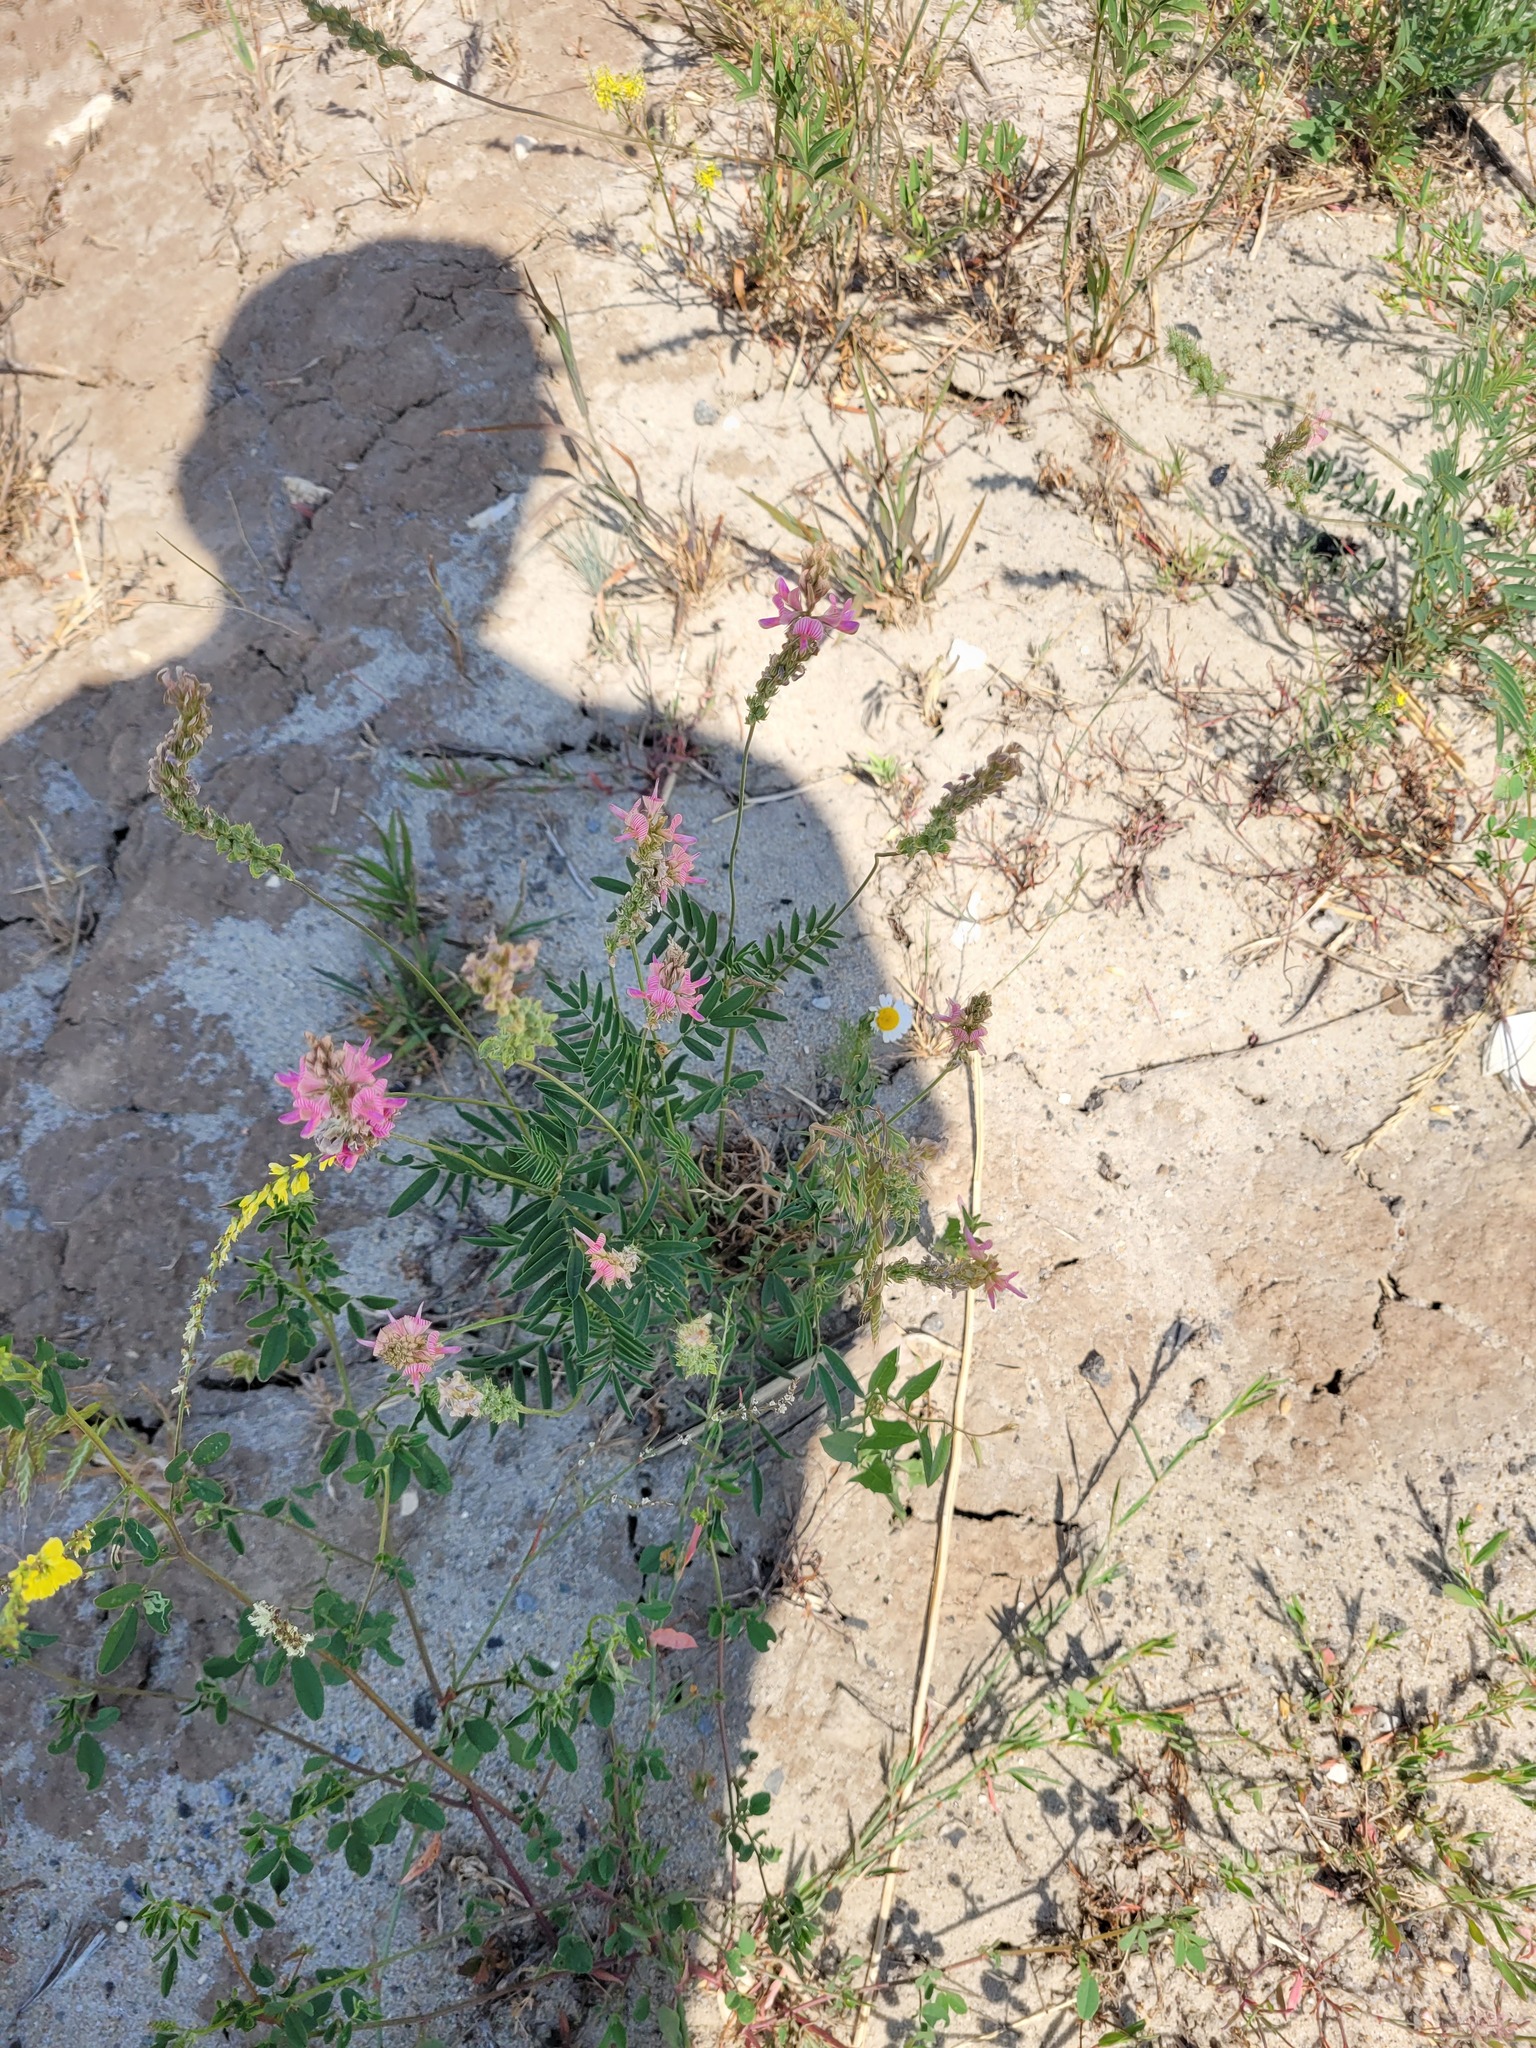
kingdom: Plantae
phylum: Tracheophyta
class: Magnoliopsida
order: Fabales
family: Fabaceae
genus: Onobrychis
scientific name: Onobrychis viciifolia
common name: Sainfoin
